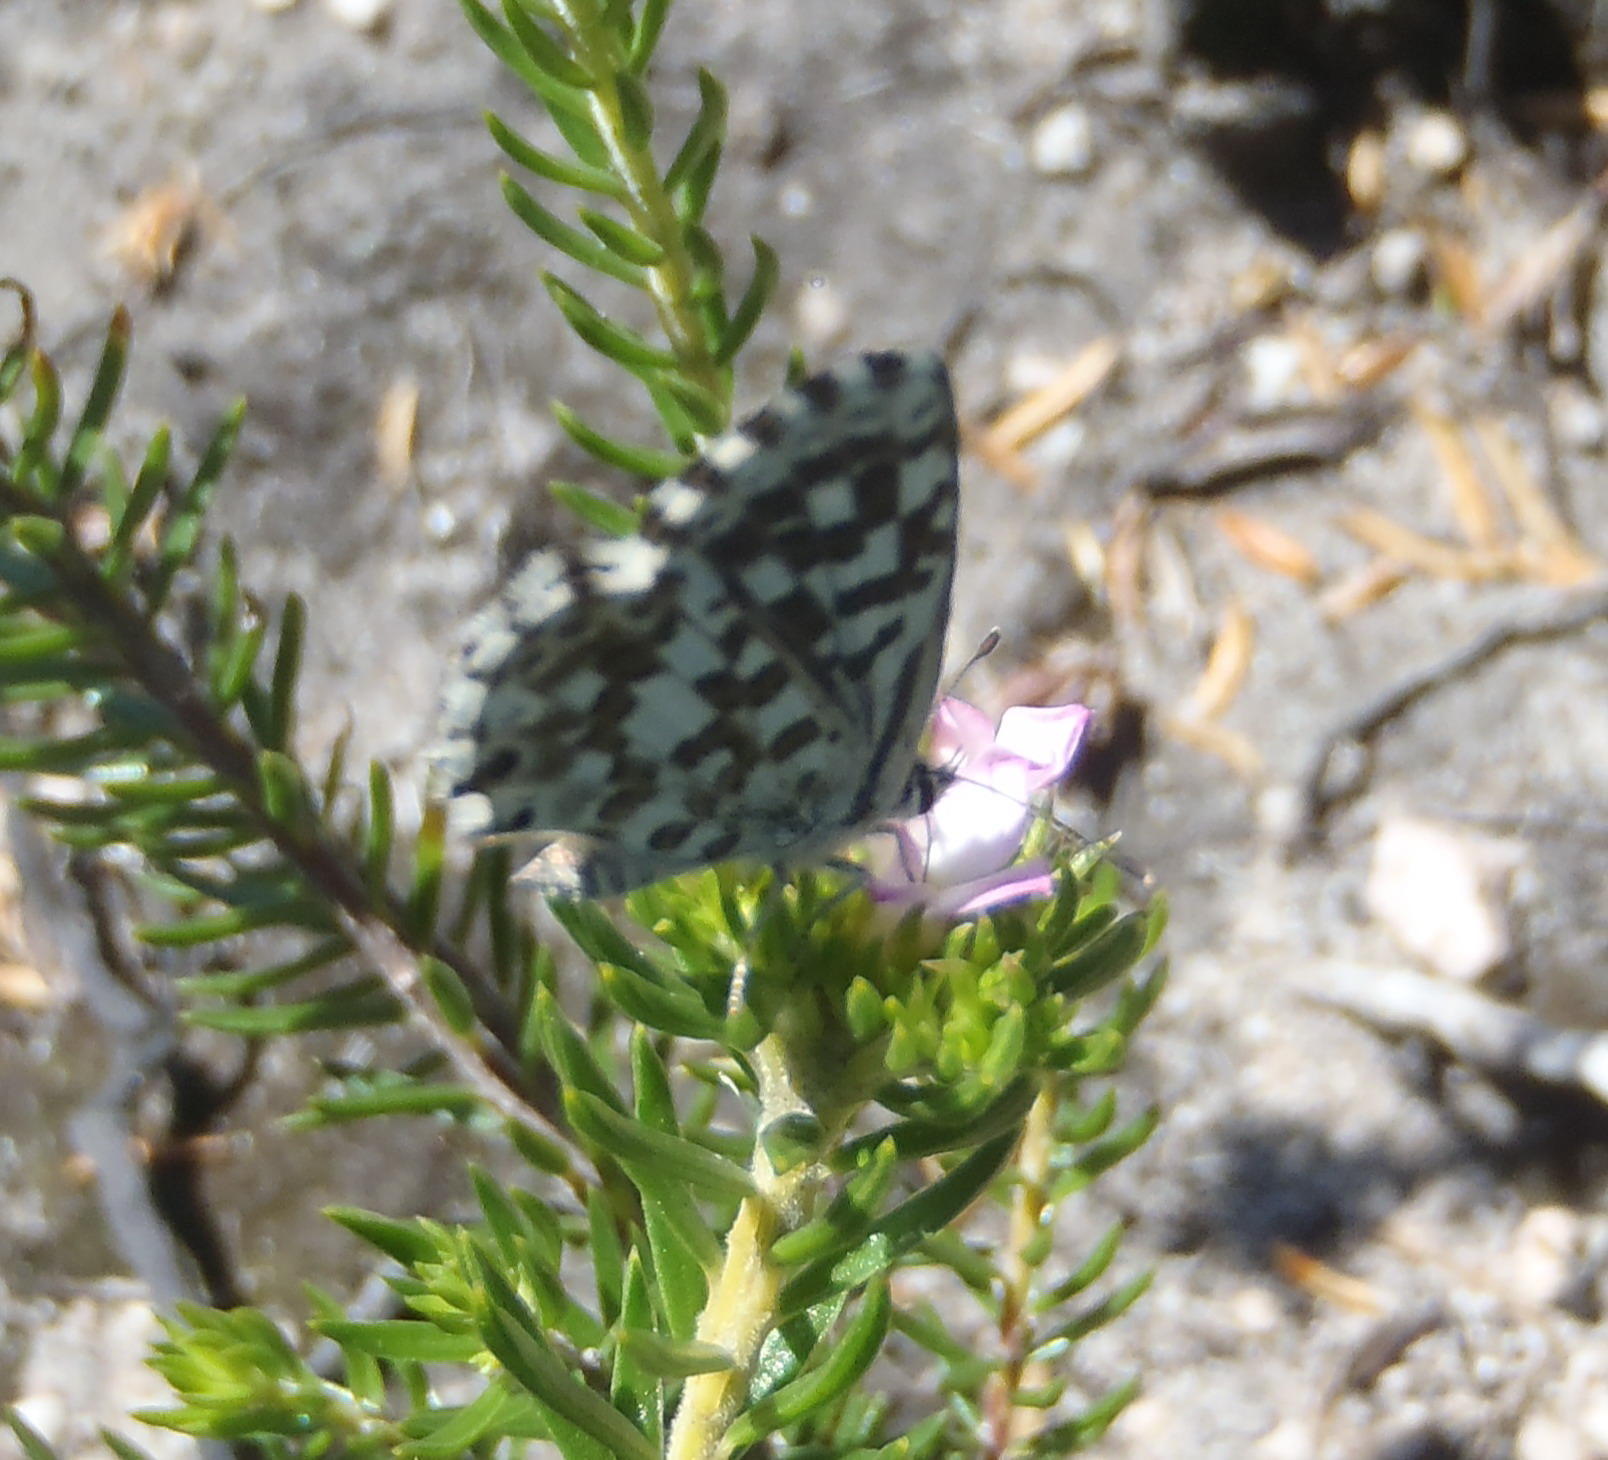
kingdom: Animalia
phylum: Arthropoda
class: Insecta
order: Lepidoptera
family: Lycaenidae
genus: Tarucus
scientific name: Tarucus thespis
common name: Vivid dotted blue
